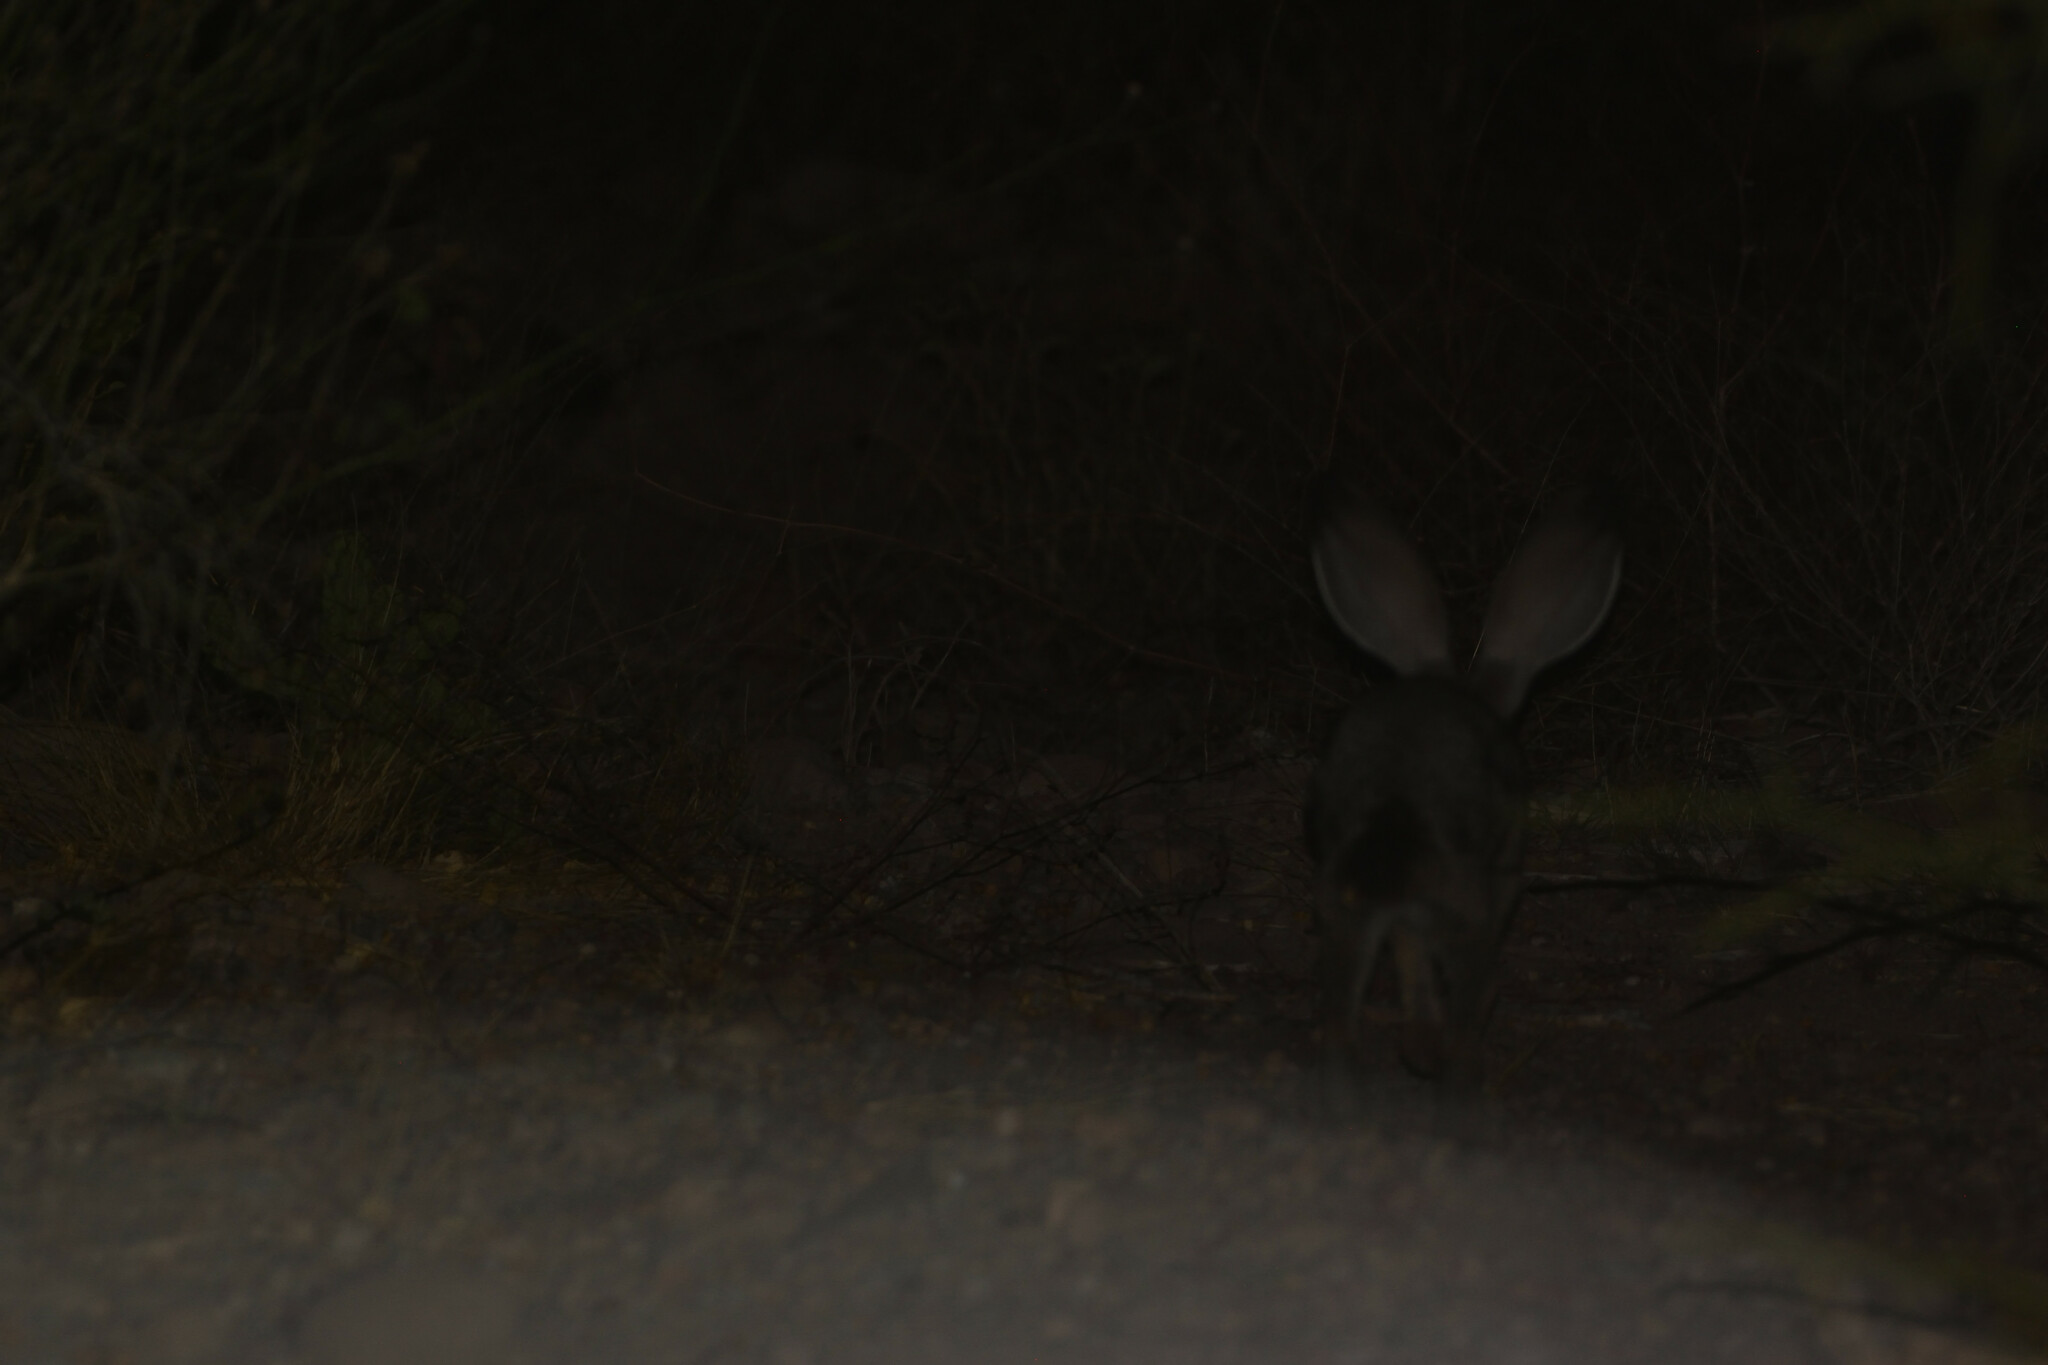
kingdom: Animalia
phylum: Chordata
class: Mammalia
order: Lagomorpha
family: Leporidae
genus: Lepus
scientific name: Lepus californicus
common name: Black-tailed jackrabbit
